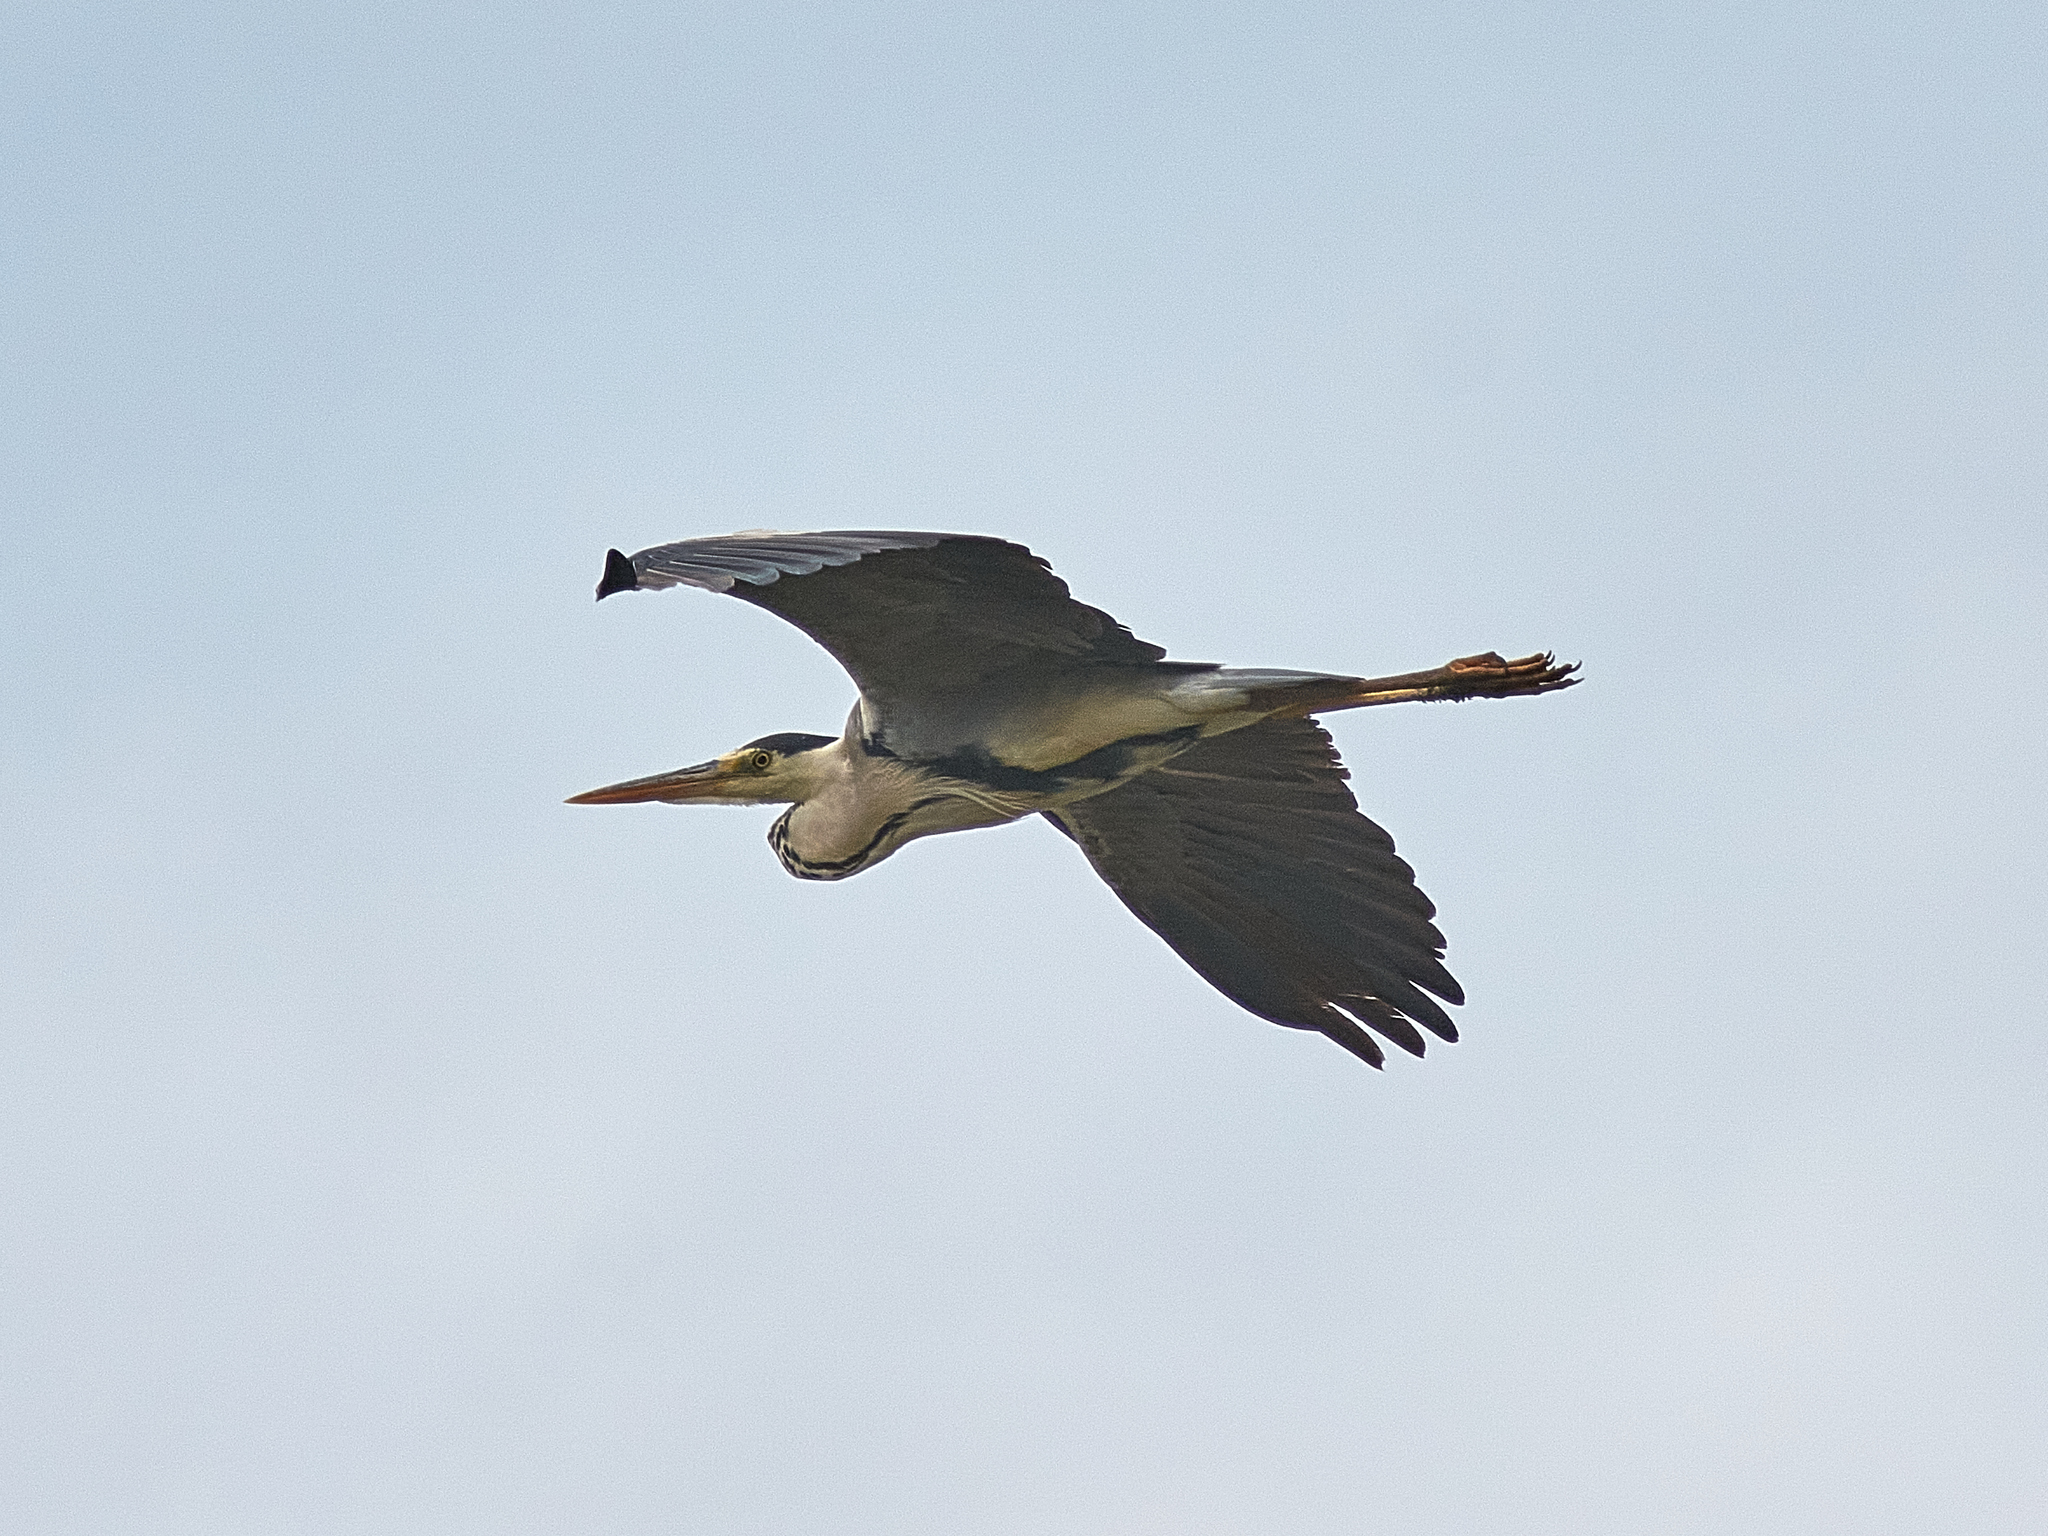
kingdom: Animalia
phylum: Chordata
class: Aves
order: Pelecaniformes
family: Ardeidae
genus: Ardea
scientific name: Ardea cinerea
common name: Grey heron
